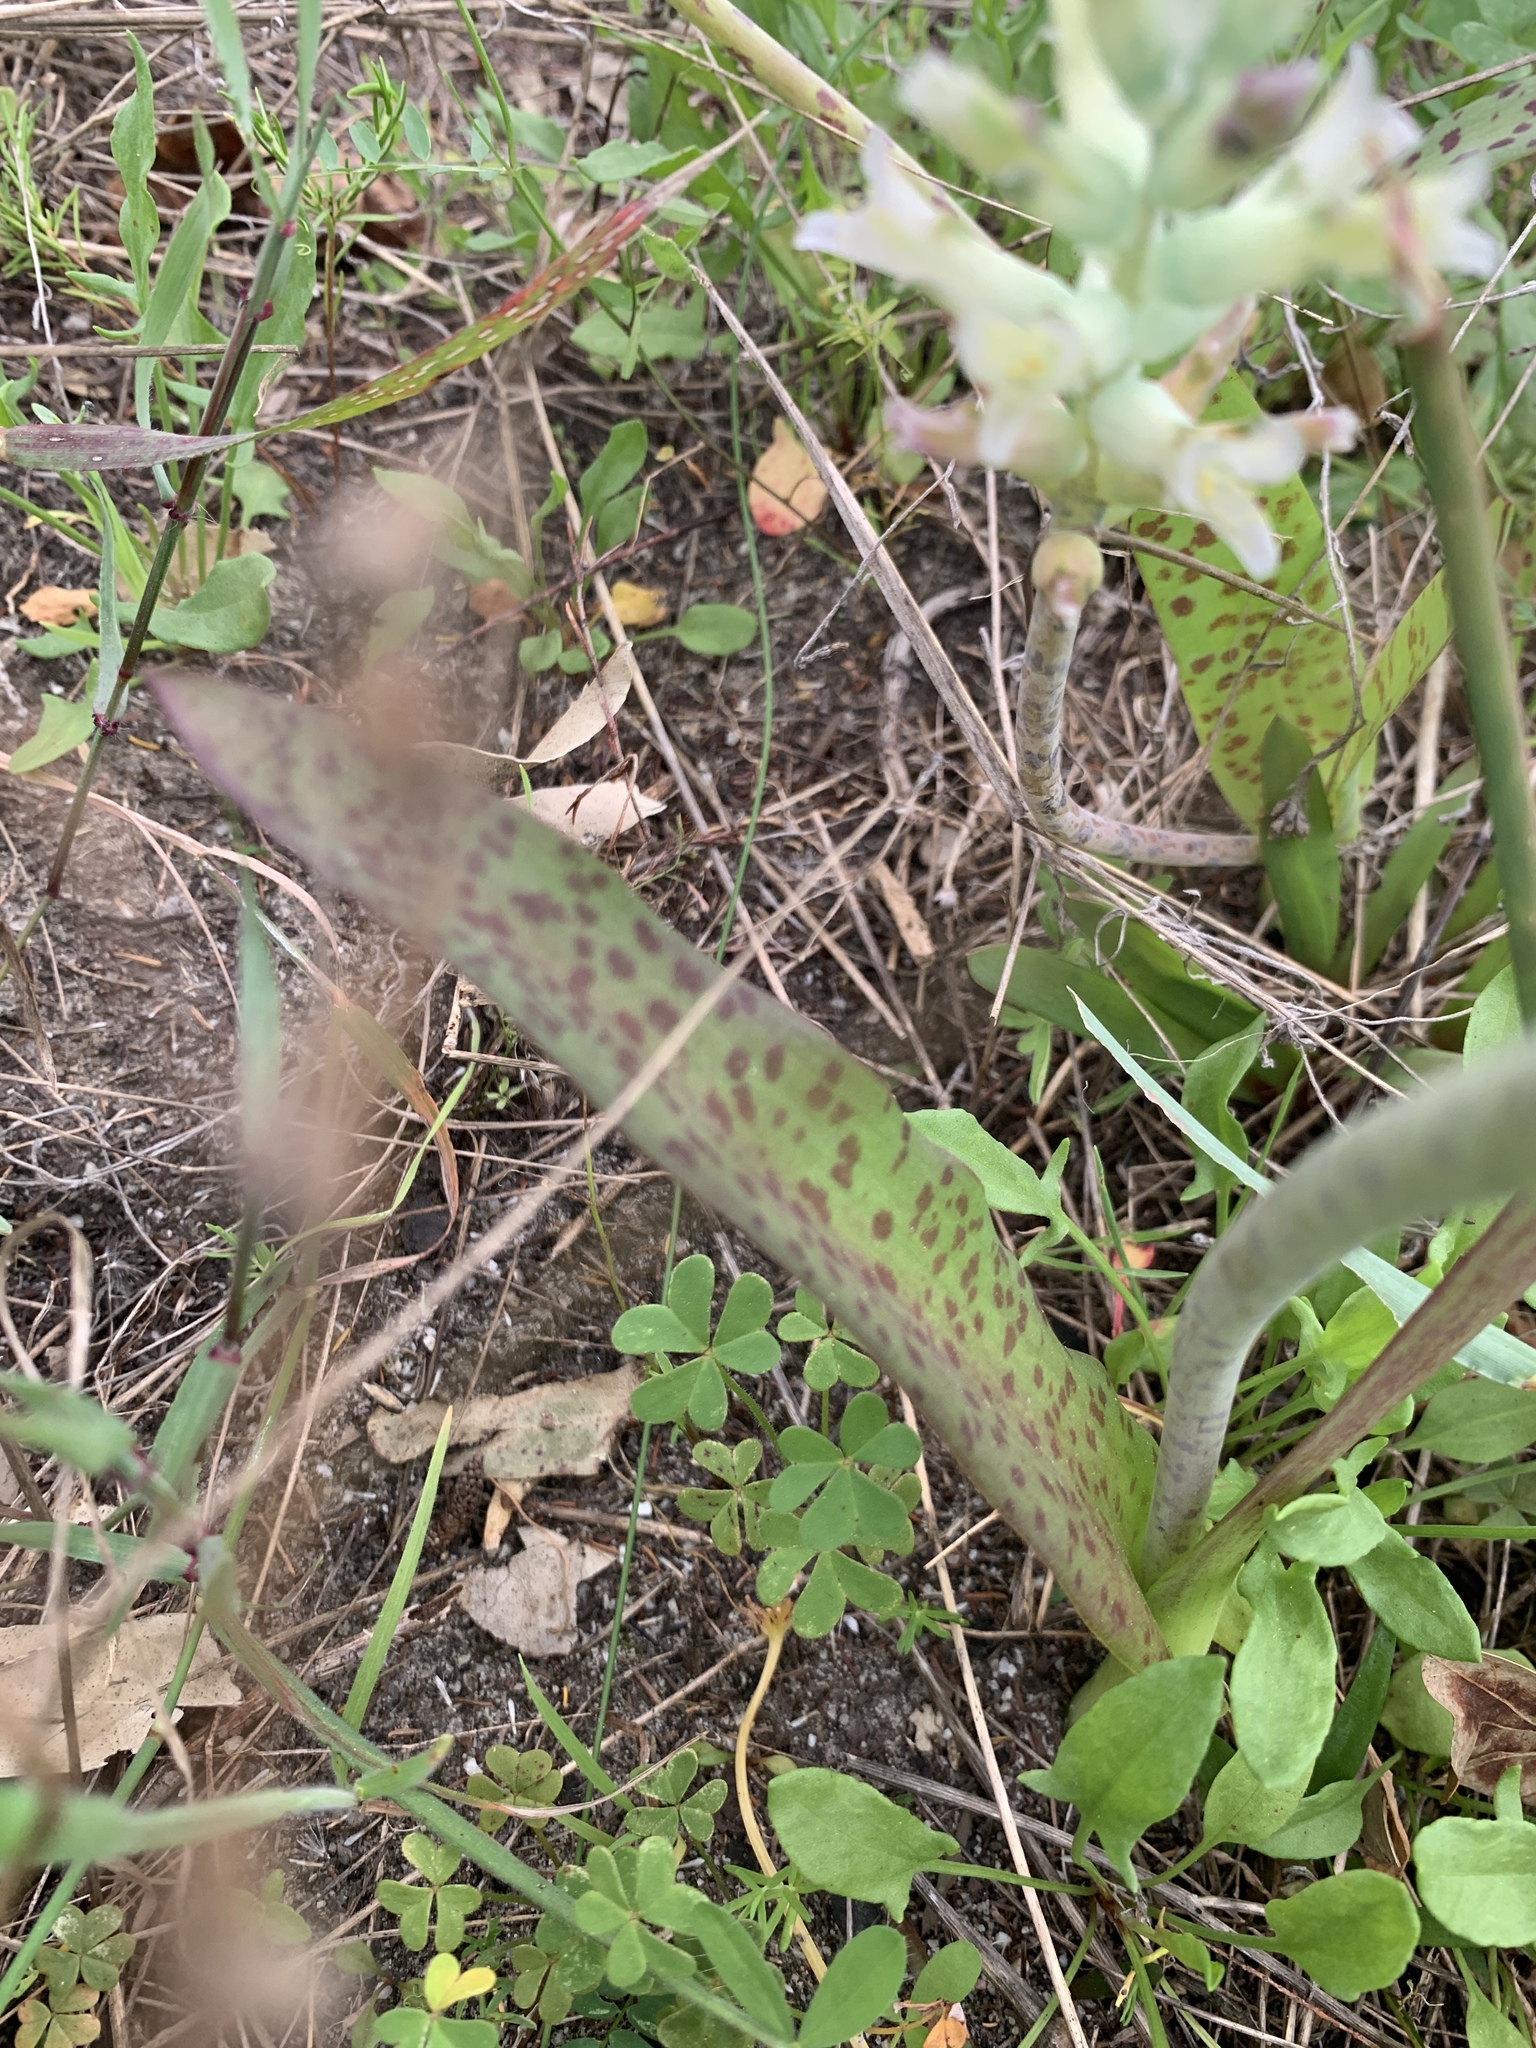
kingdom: Plantae
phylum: Tracheophyta
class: Liliopsida
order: Asparagales
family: Asparagaceae
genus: Lachenalia
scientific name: Lachenalia orchioides
